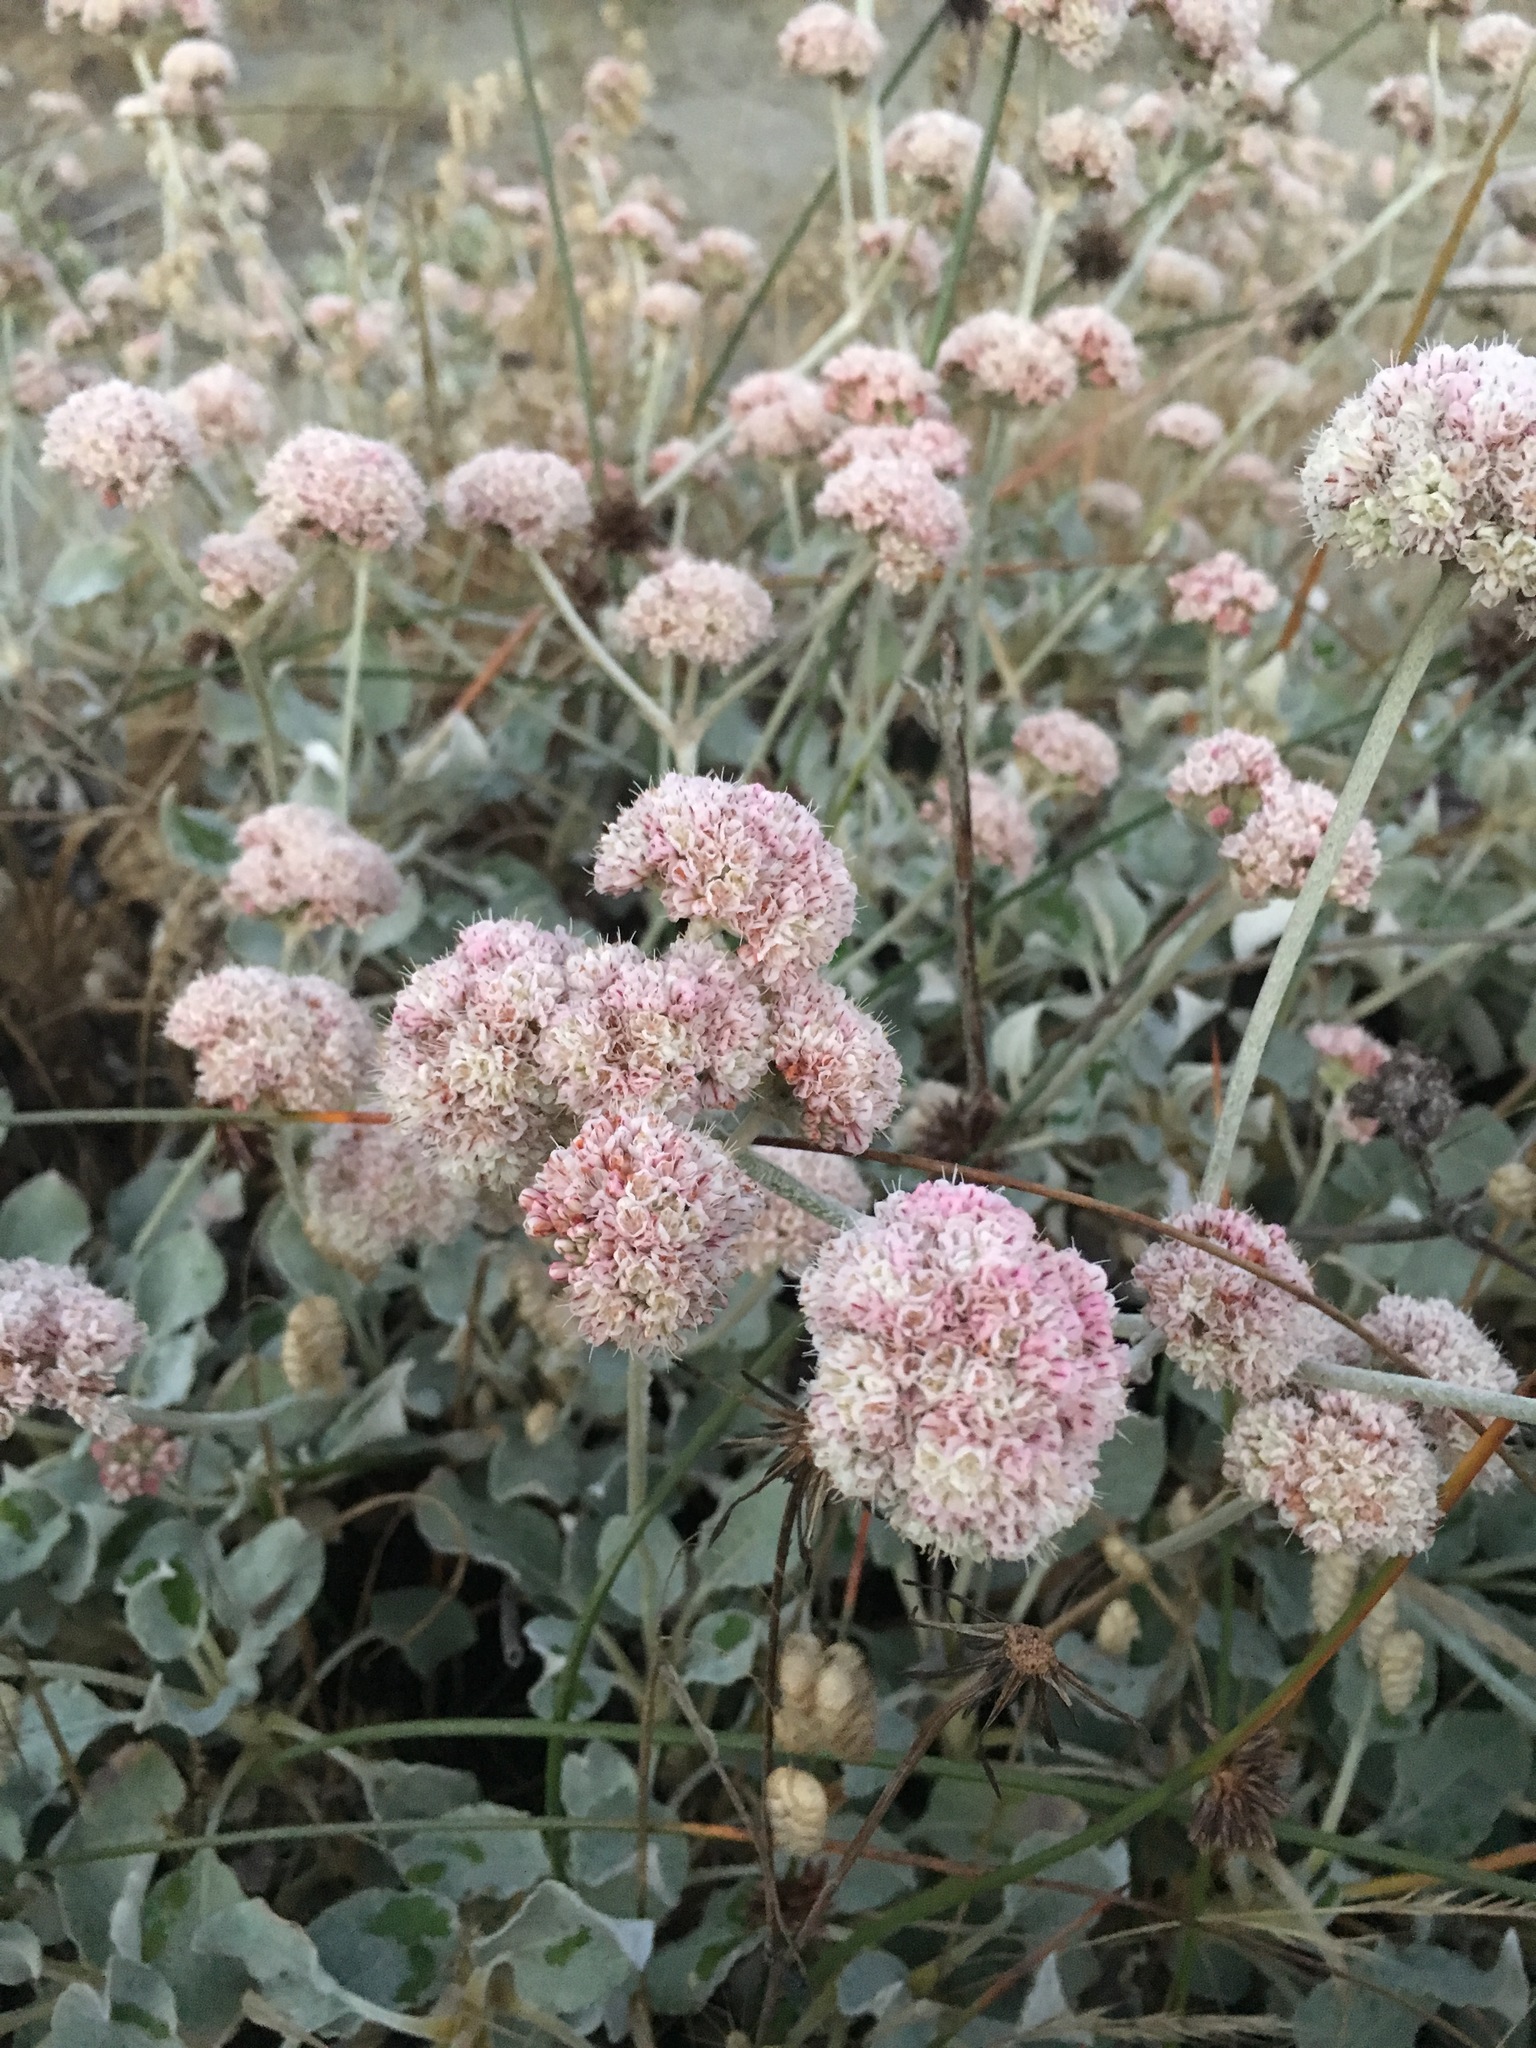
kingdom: Plantae
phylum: Tracheophyta
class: Magnoliopsida
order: Caryophyllales
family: Polygonaceae
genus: Eriogonum
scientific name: Eriogonum latifolium
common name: Seaside wild buckwheat
